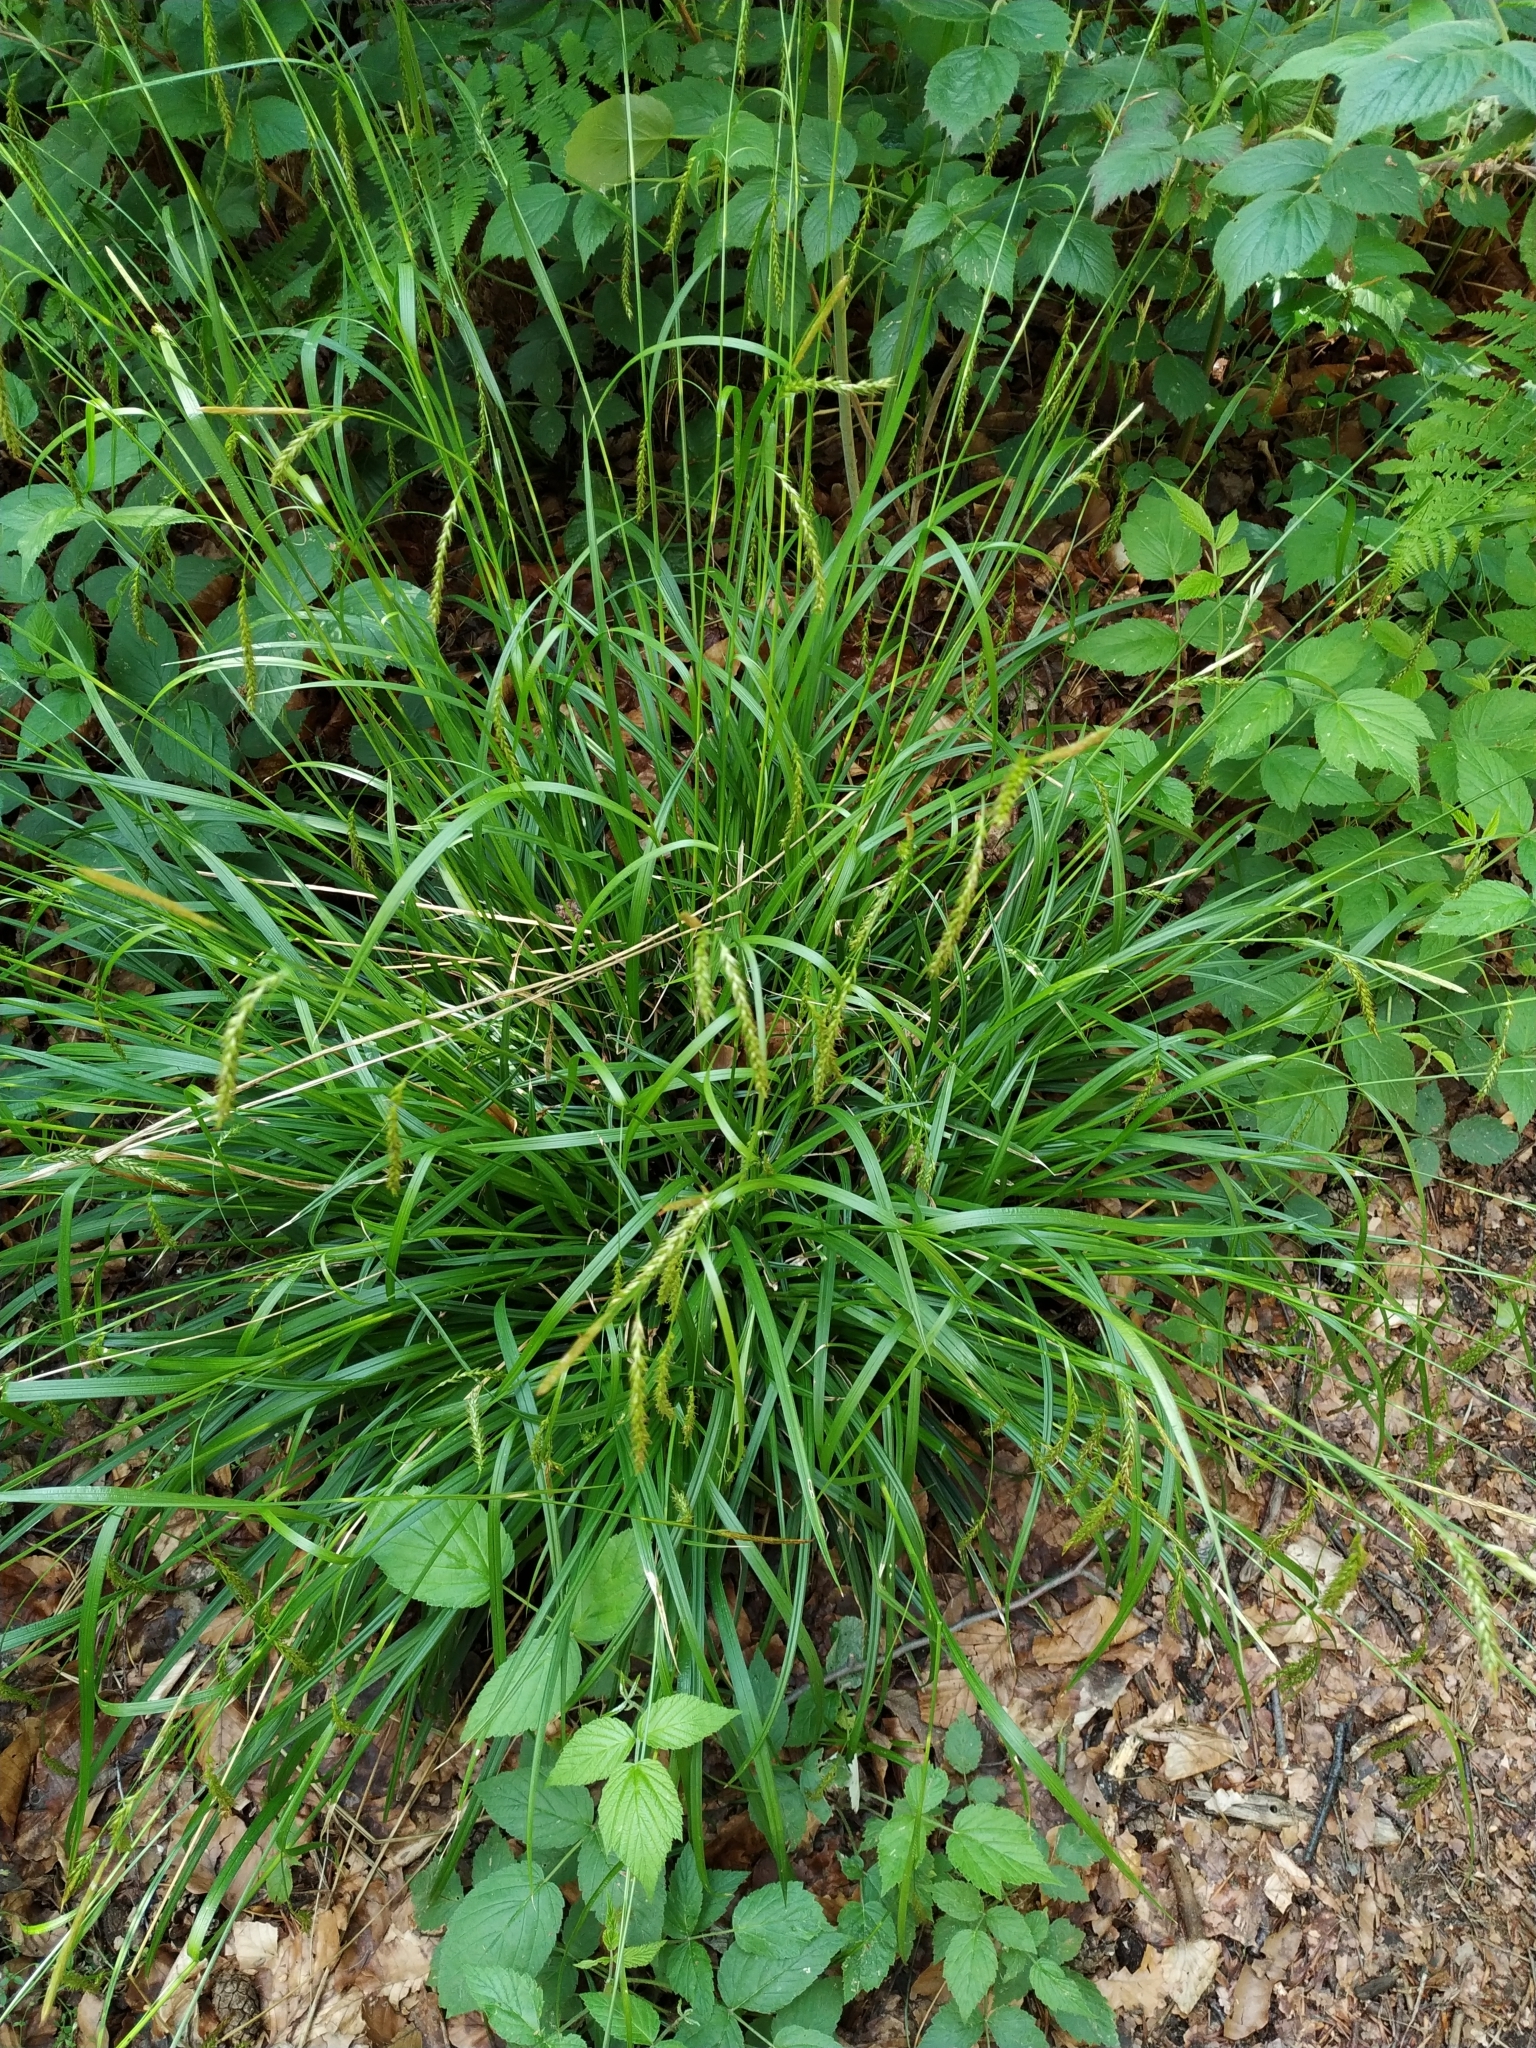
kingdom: Plantae
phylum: Tracheophyta
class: Liliopsida
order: Poales
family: Cyperaceae
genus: Carex
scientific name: Carex sylvatica
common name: Wood-sedge
